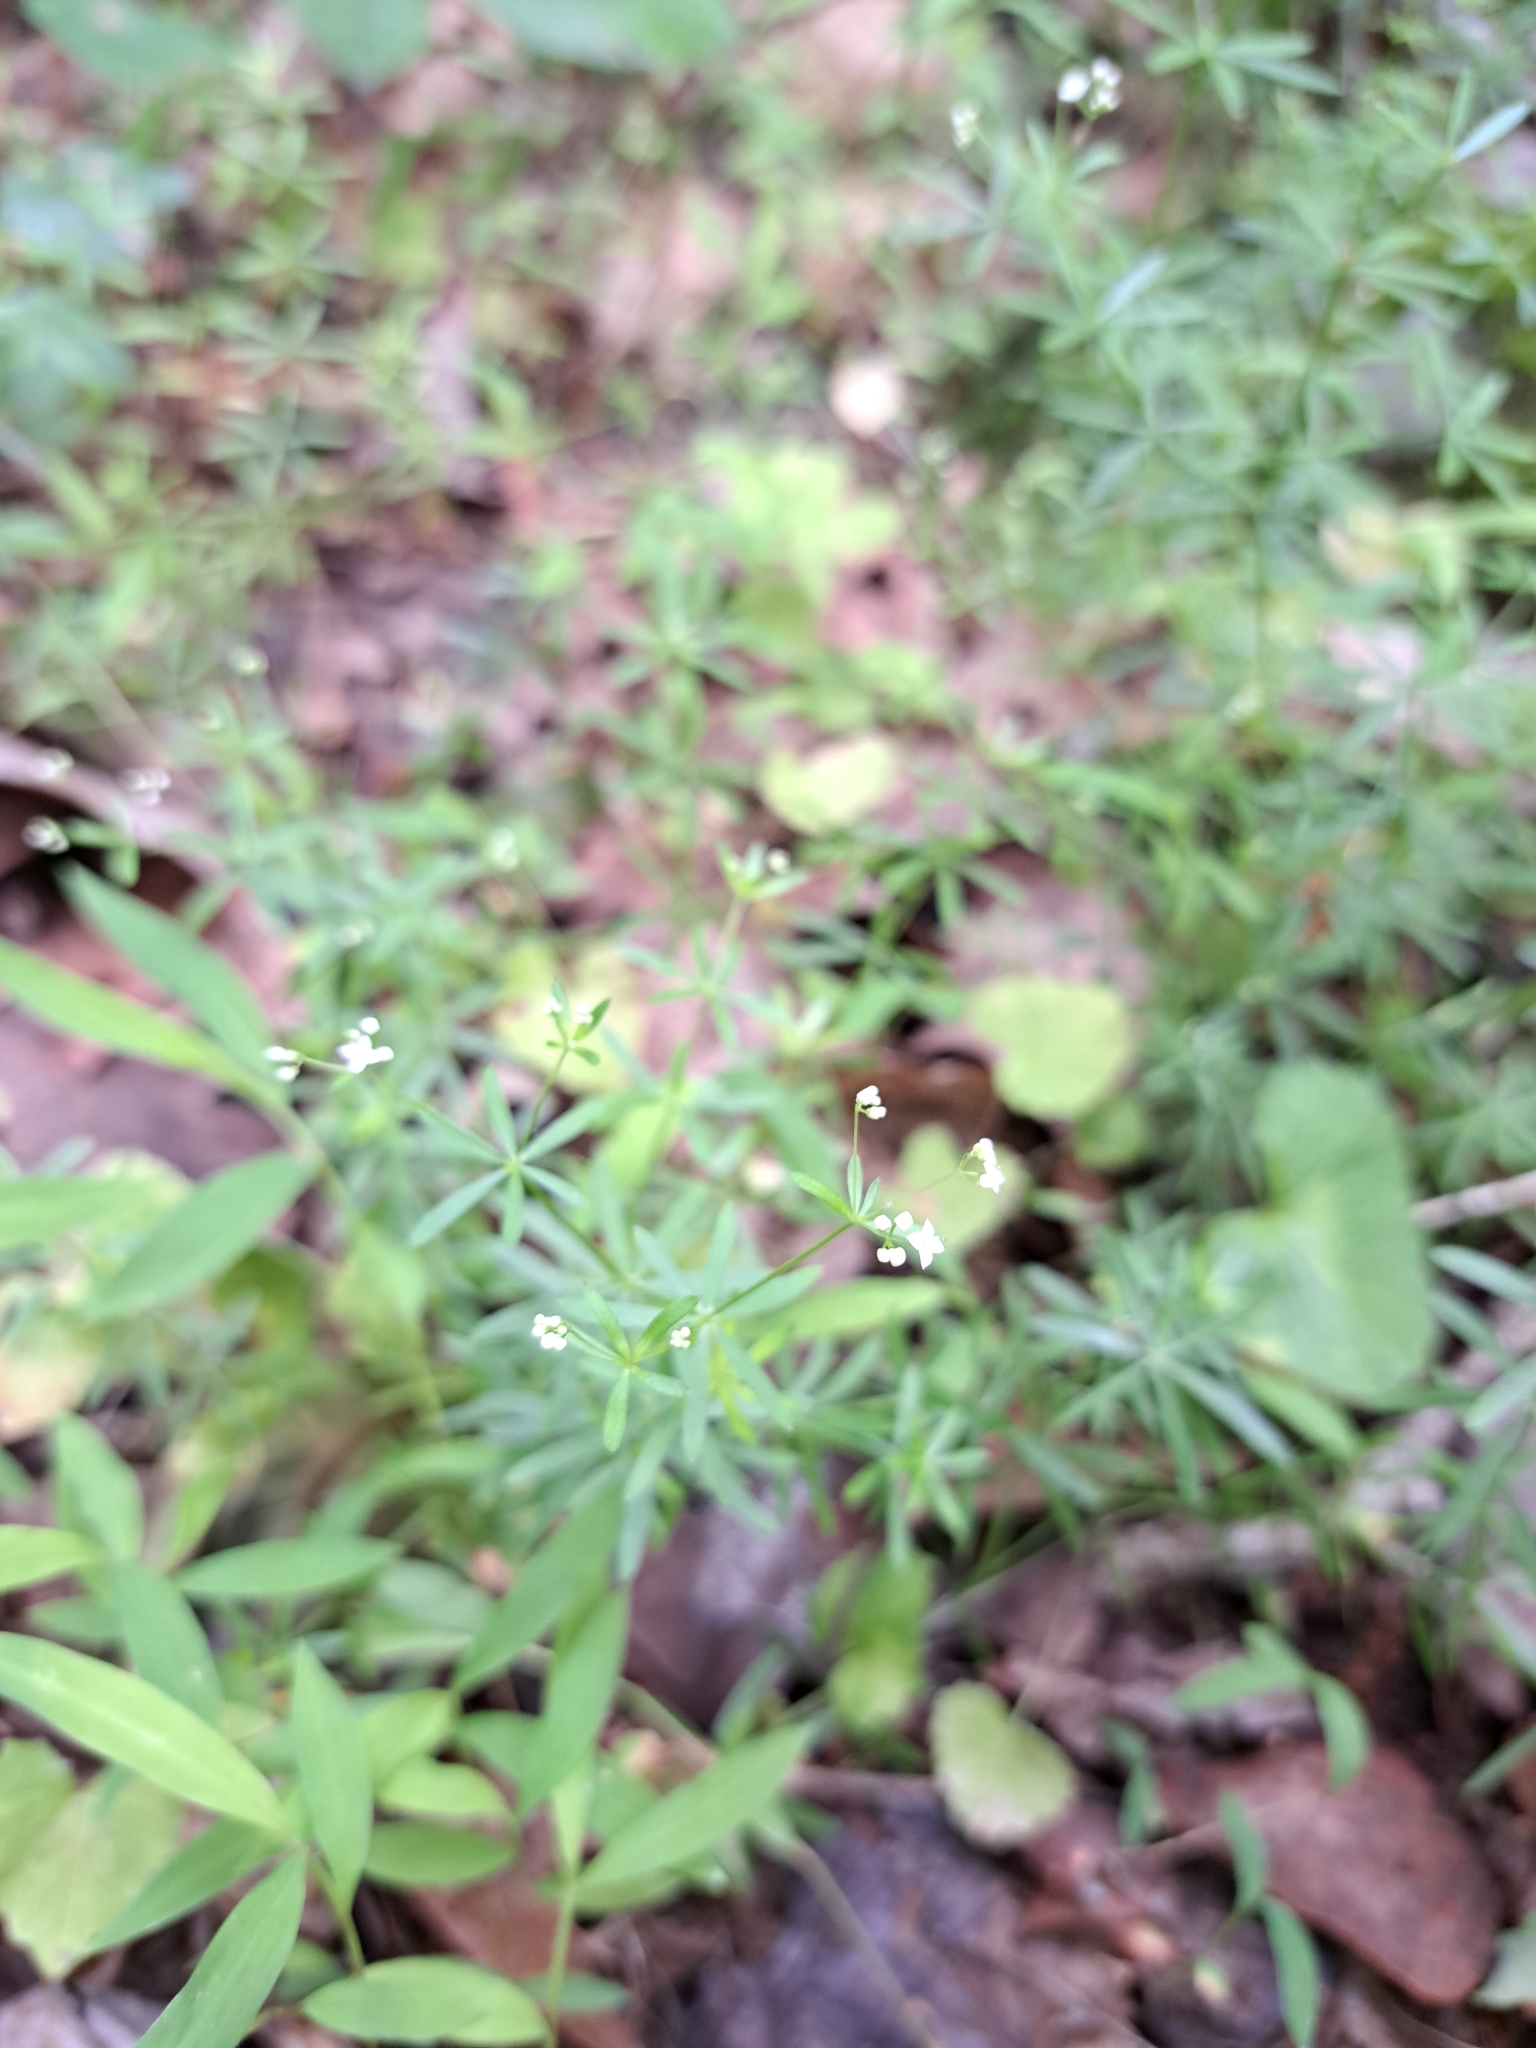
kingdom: Plantae
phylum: Tracheophyta
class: Magnoliopsida
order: Gentianales
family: Rubiaceae
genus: Galium
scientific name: Galium concinnum
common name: Shining bedstraw
